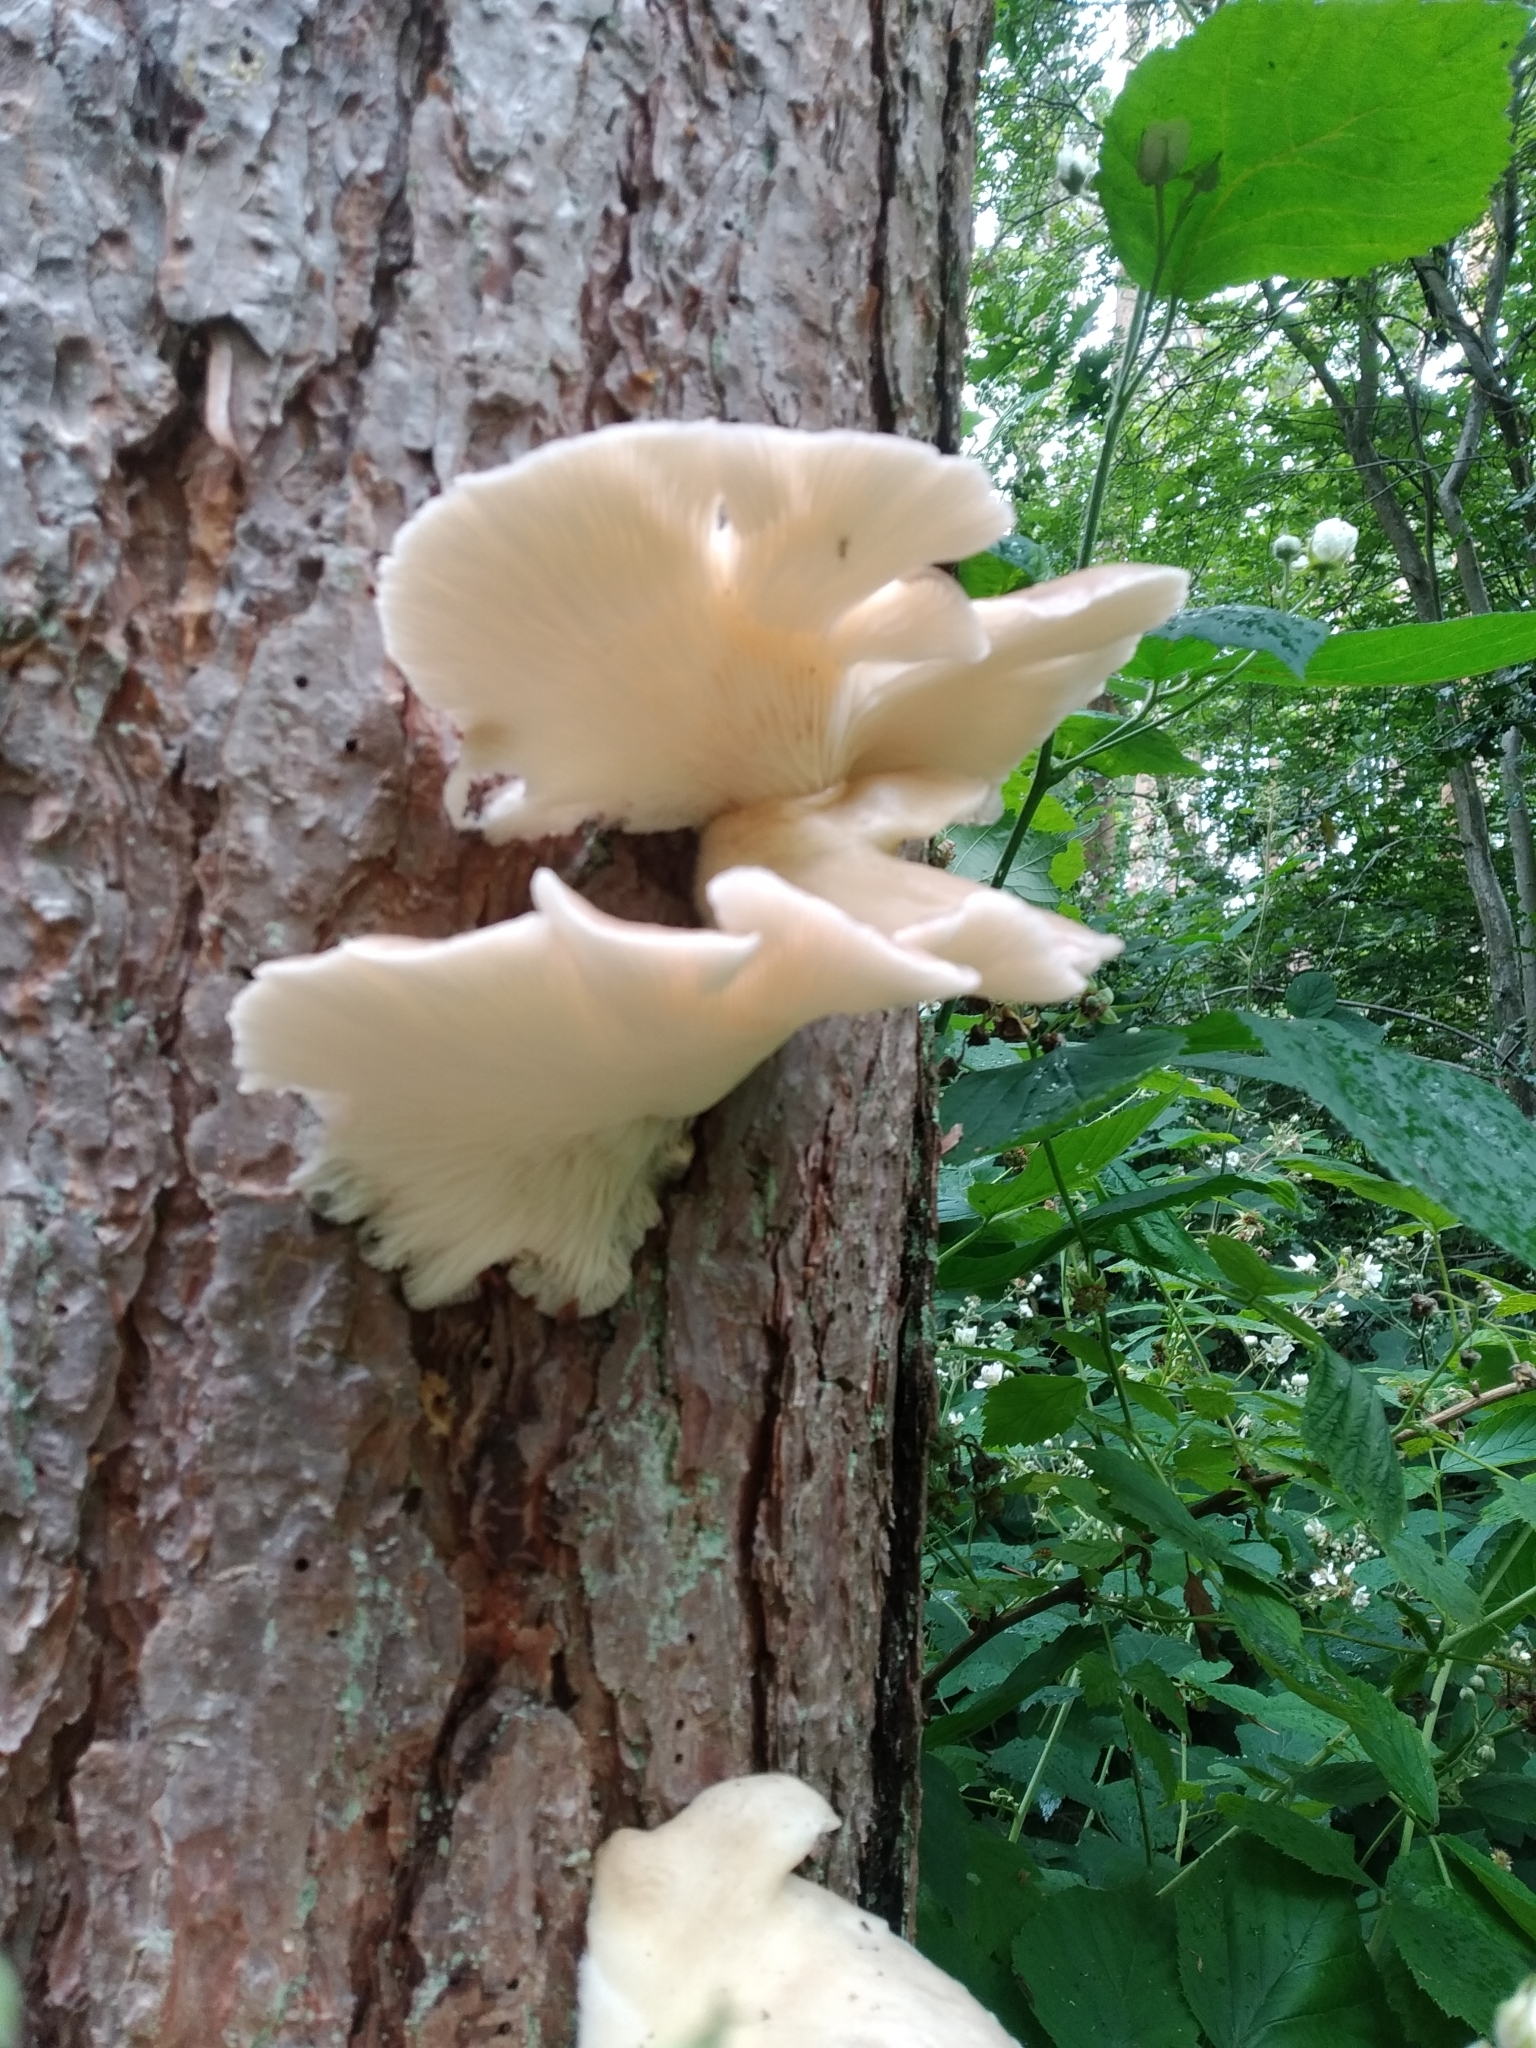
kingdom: Fungi
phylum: Basidiomycota
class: Agaricomycetes
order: Agaricales
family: Pleurotaceae
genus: Pleurotus
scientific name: Pleurotus ostreatus
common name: Oyster mushroom
